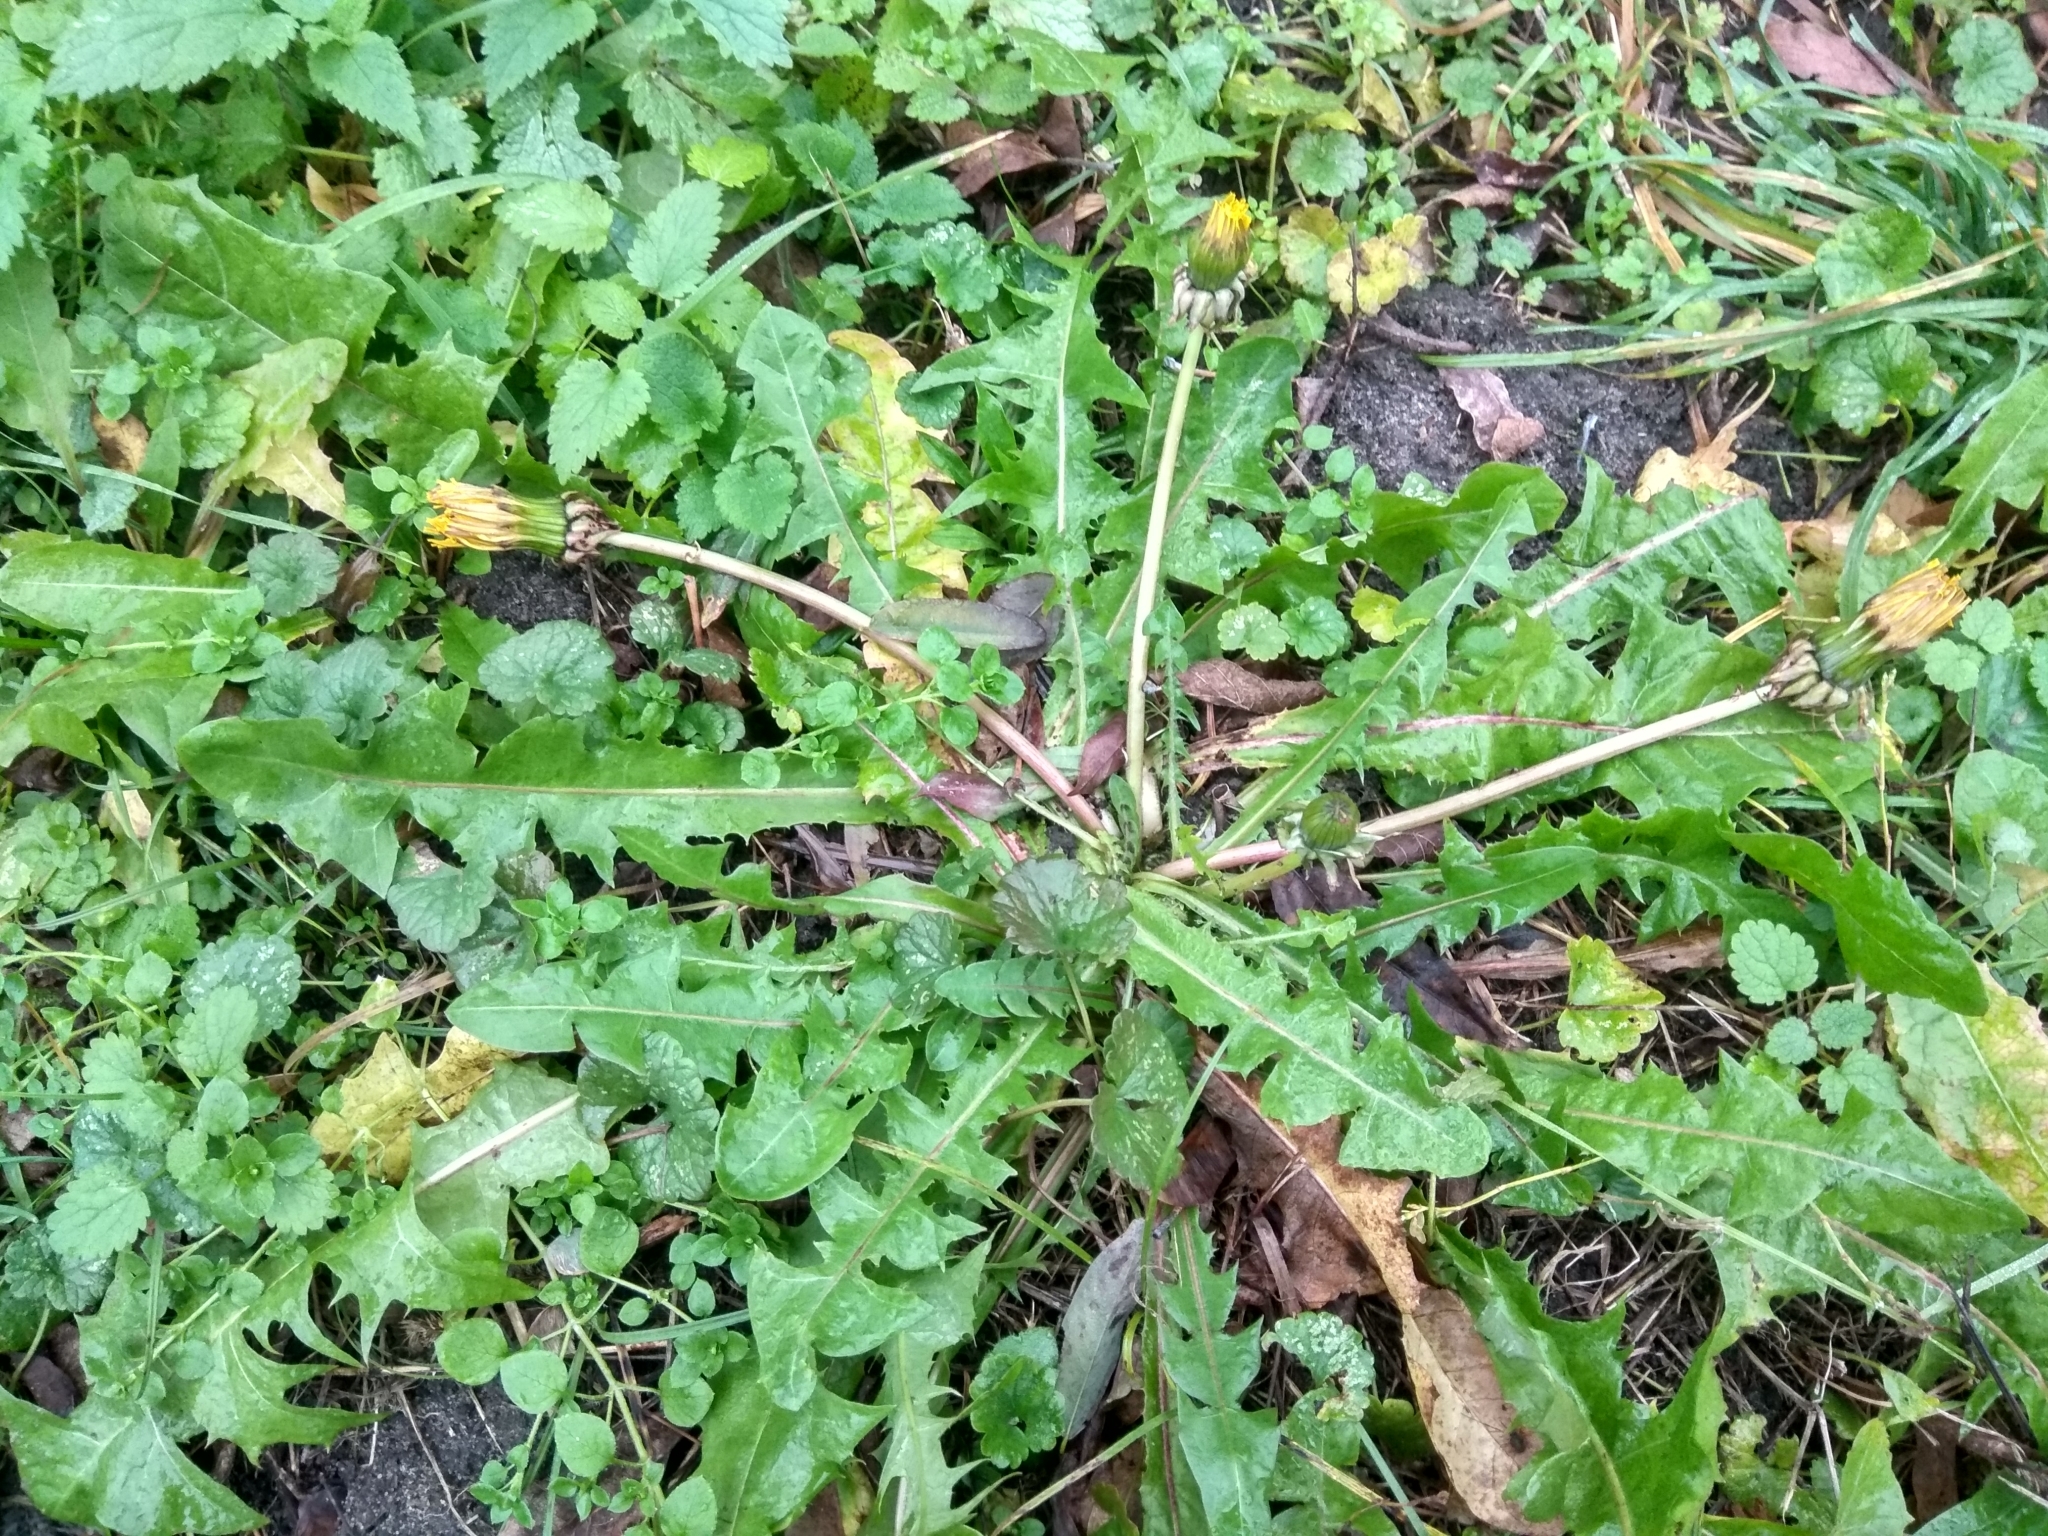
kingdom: Plantae
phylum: Tracheophyta
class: Magnoliopsida
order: Asterales
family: Asteraceae
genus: Taraxacum
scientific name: Taraxacum officinale
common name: Common dandelion
